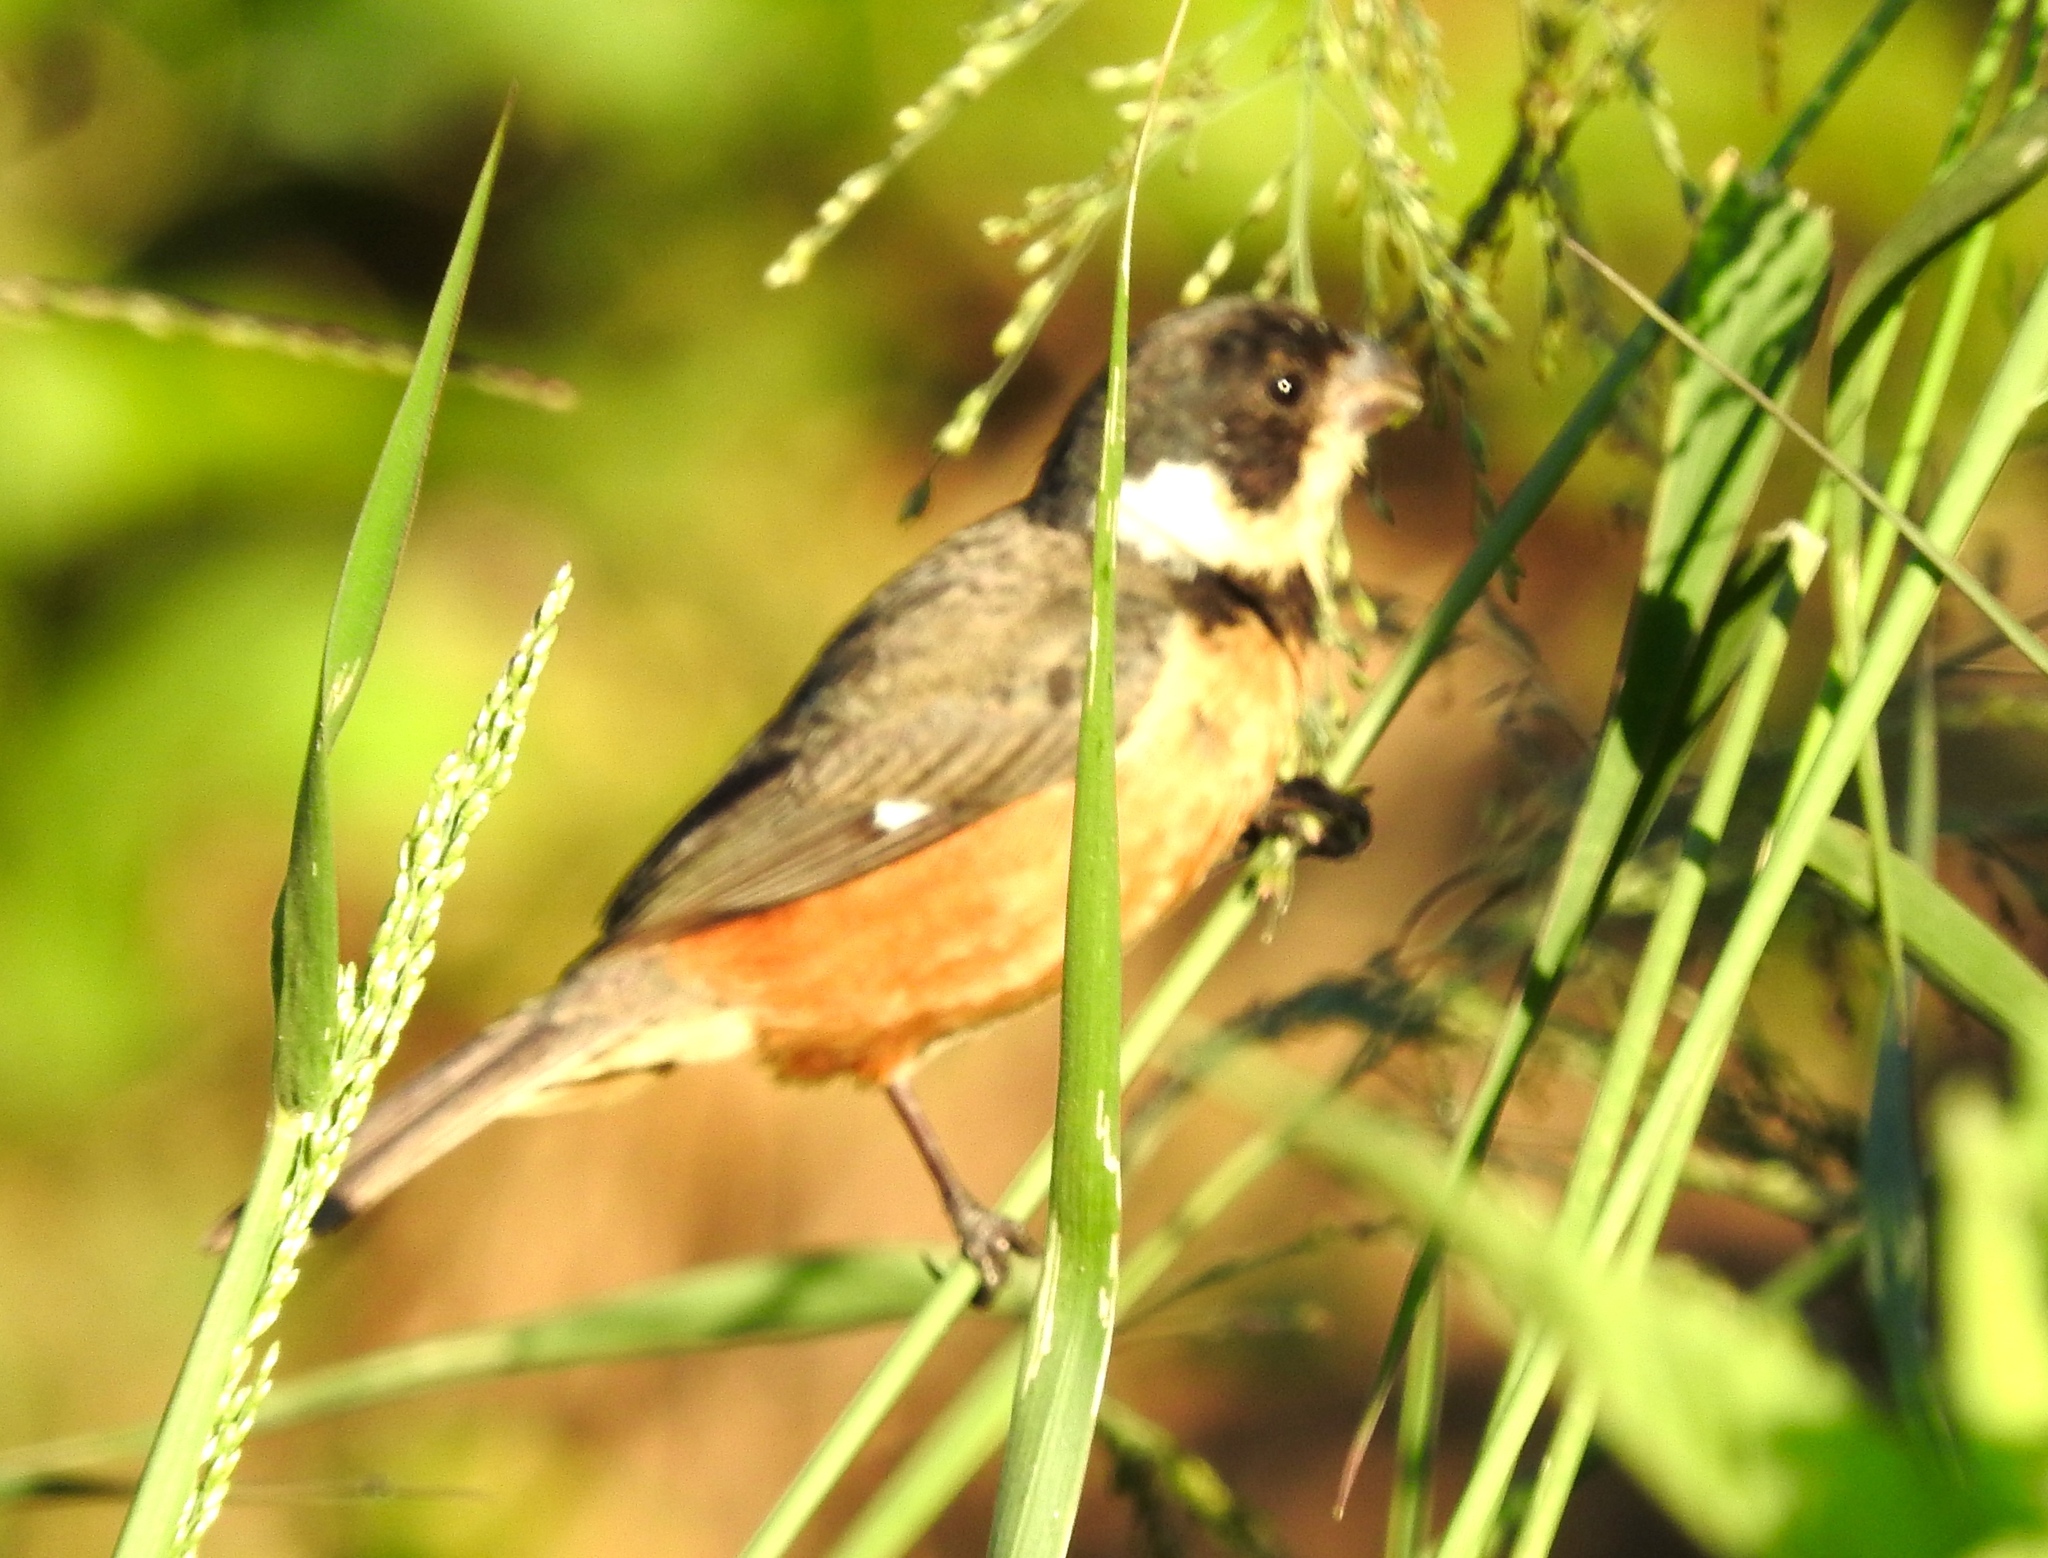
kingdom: Animalia
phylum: Chordata
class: Aves
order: Passeriformes
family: Thraupidae
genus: Sporophila
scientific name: Sporophila torqueola
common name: White-collared seedeater
